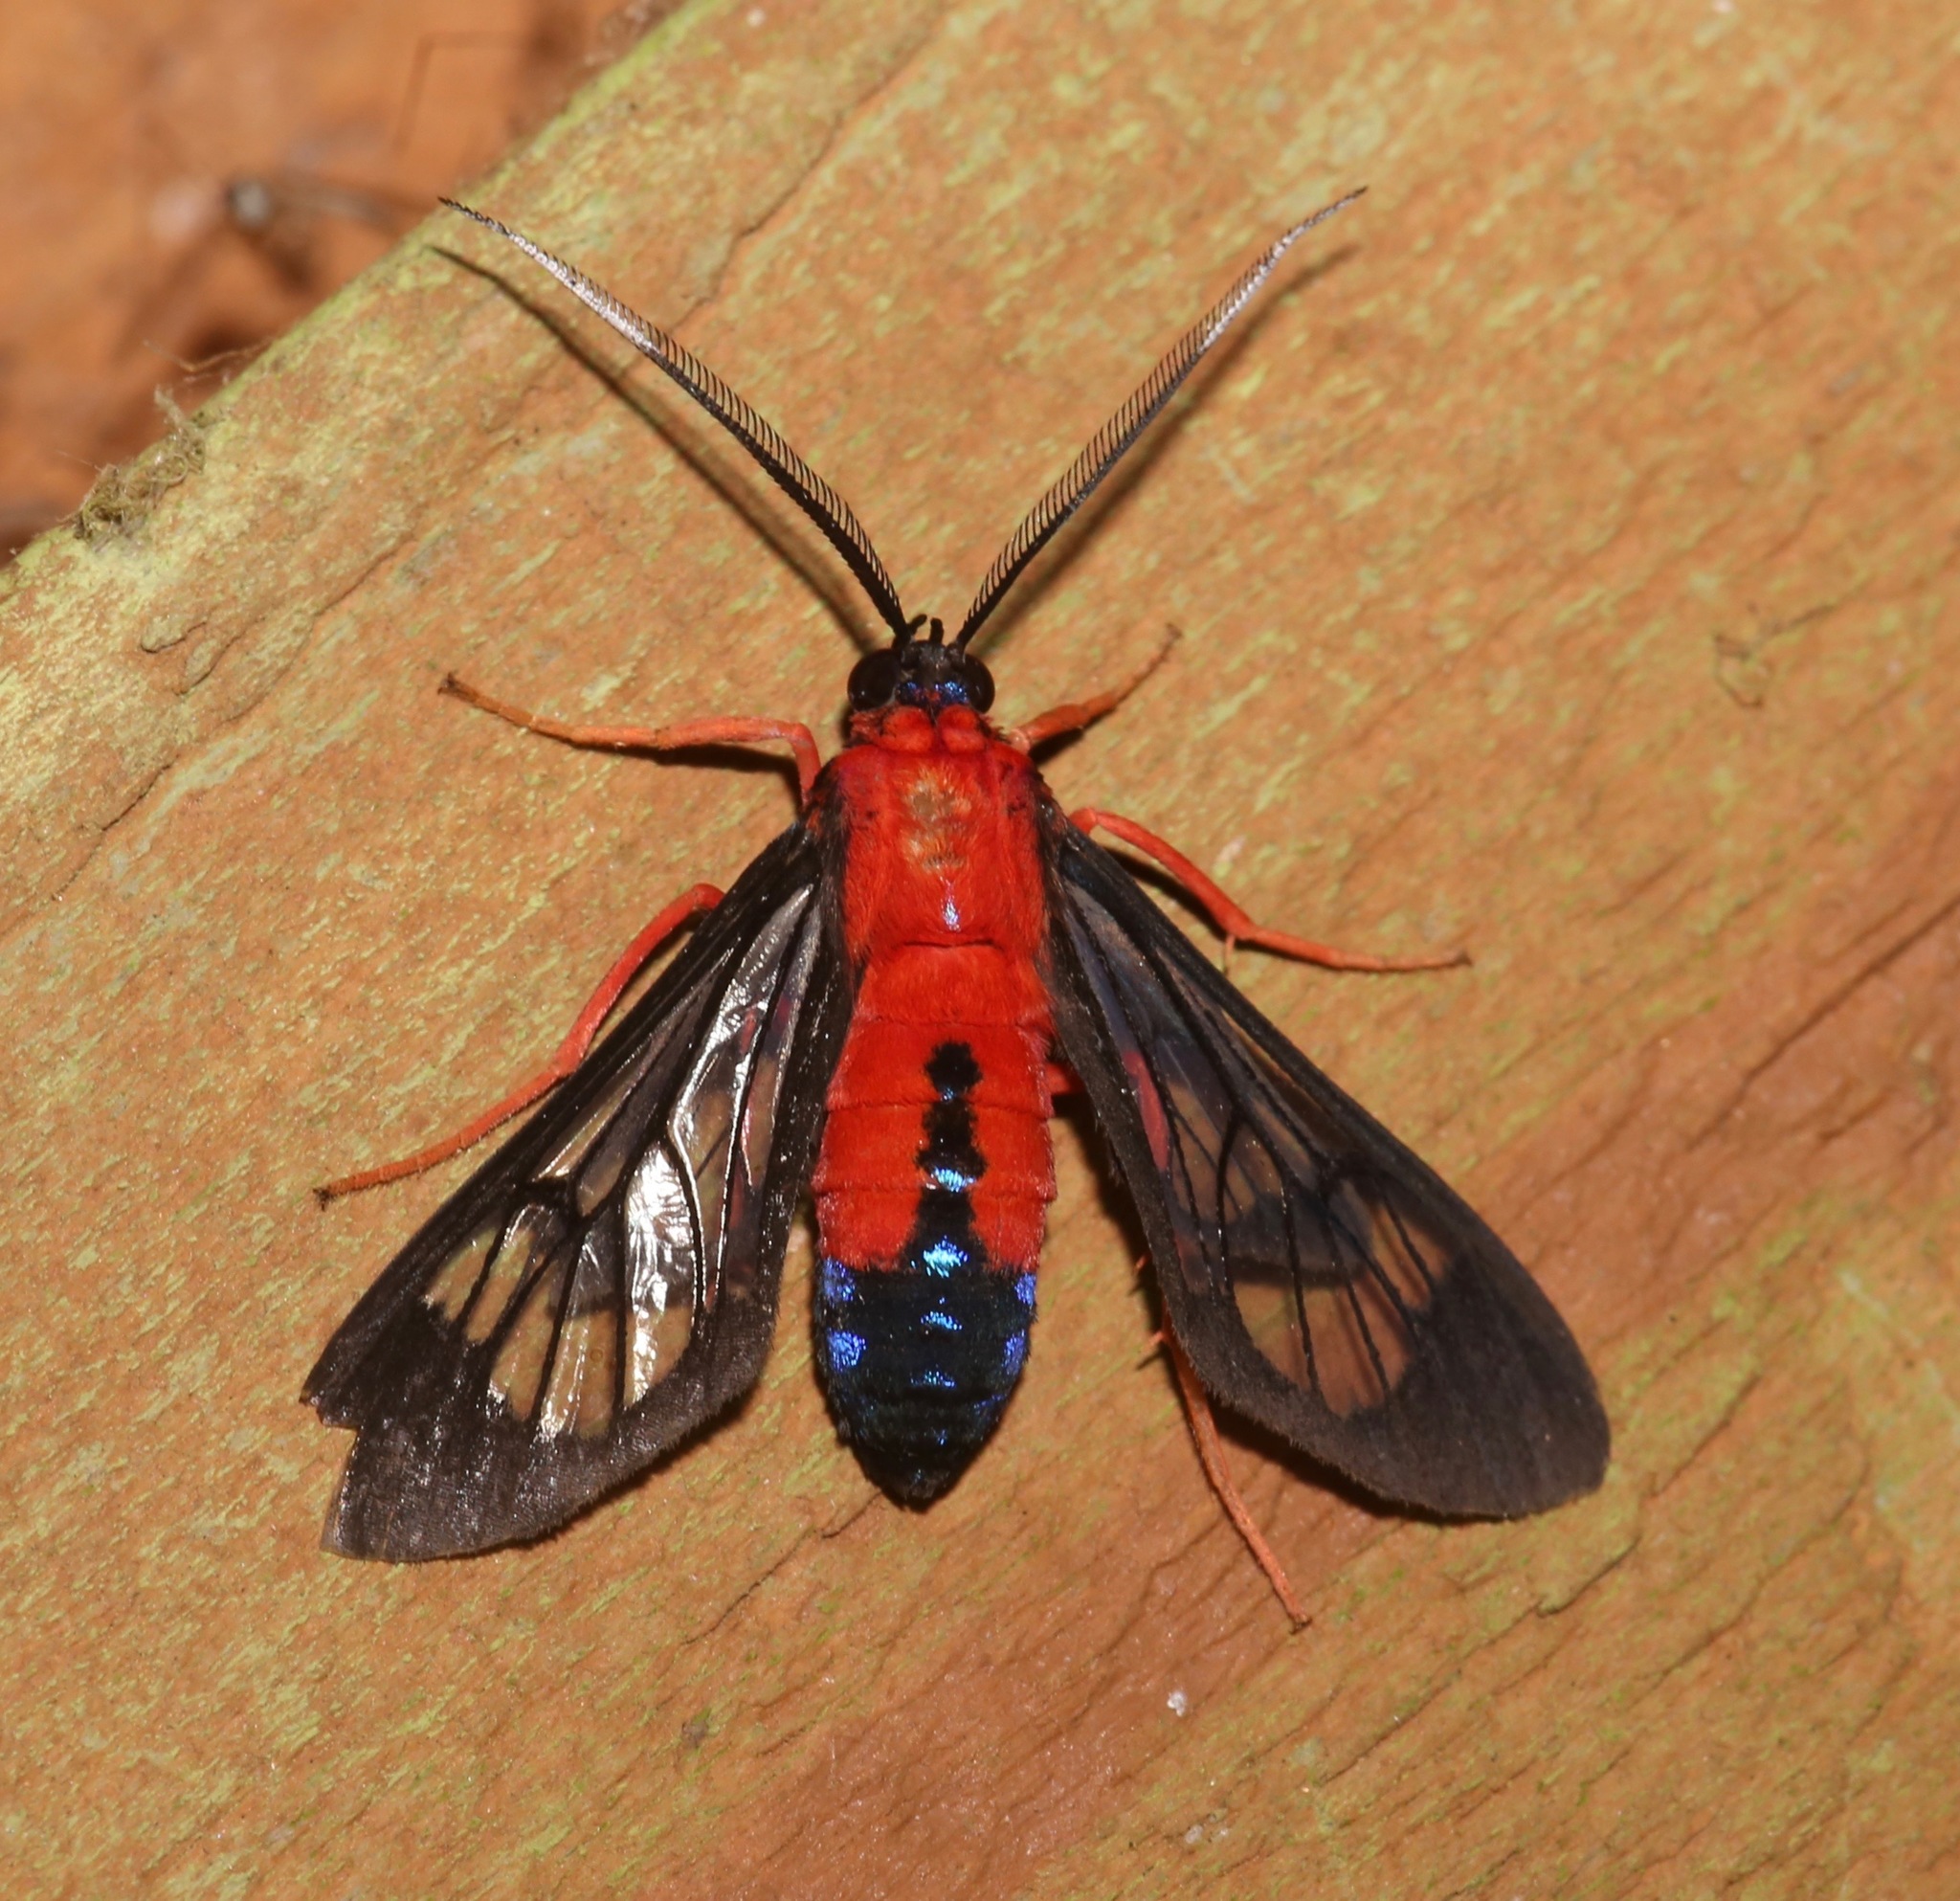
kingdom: Animalia
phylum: Arthropoda
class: Insecta
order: Lepidoptera
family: Erebidae
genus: Cosmosoma
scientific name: Cosmosoma myrodora
